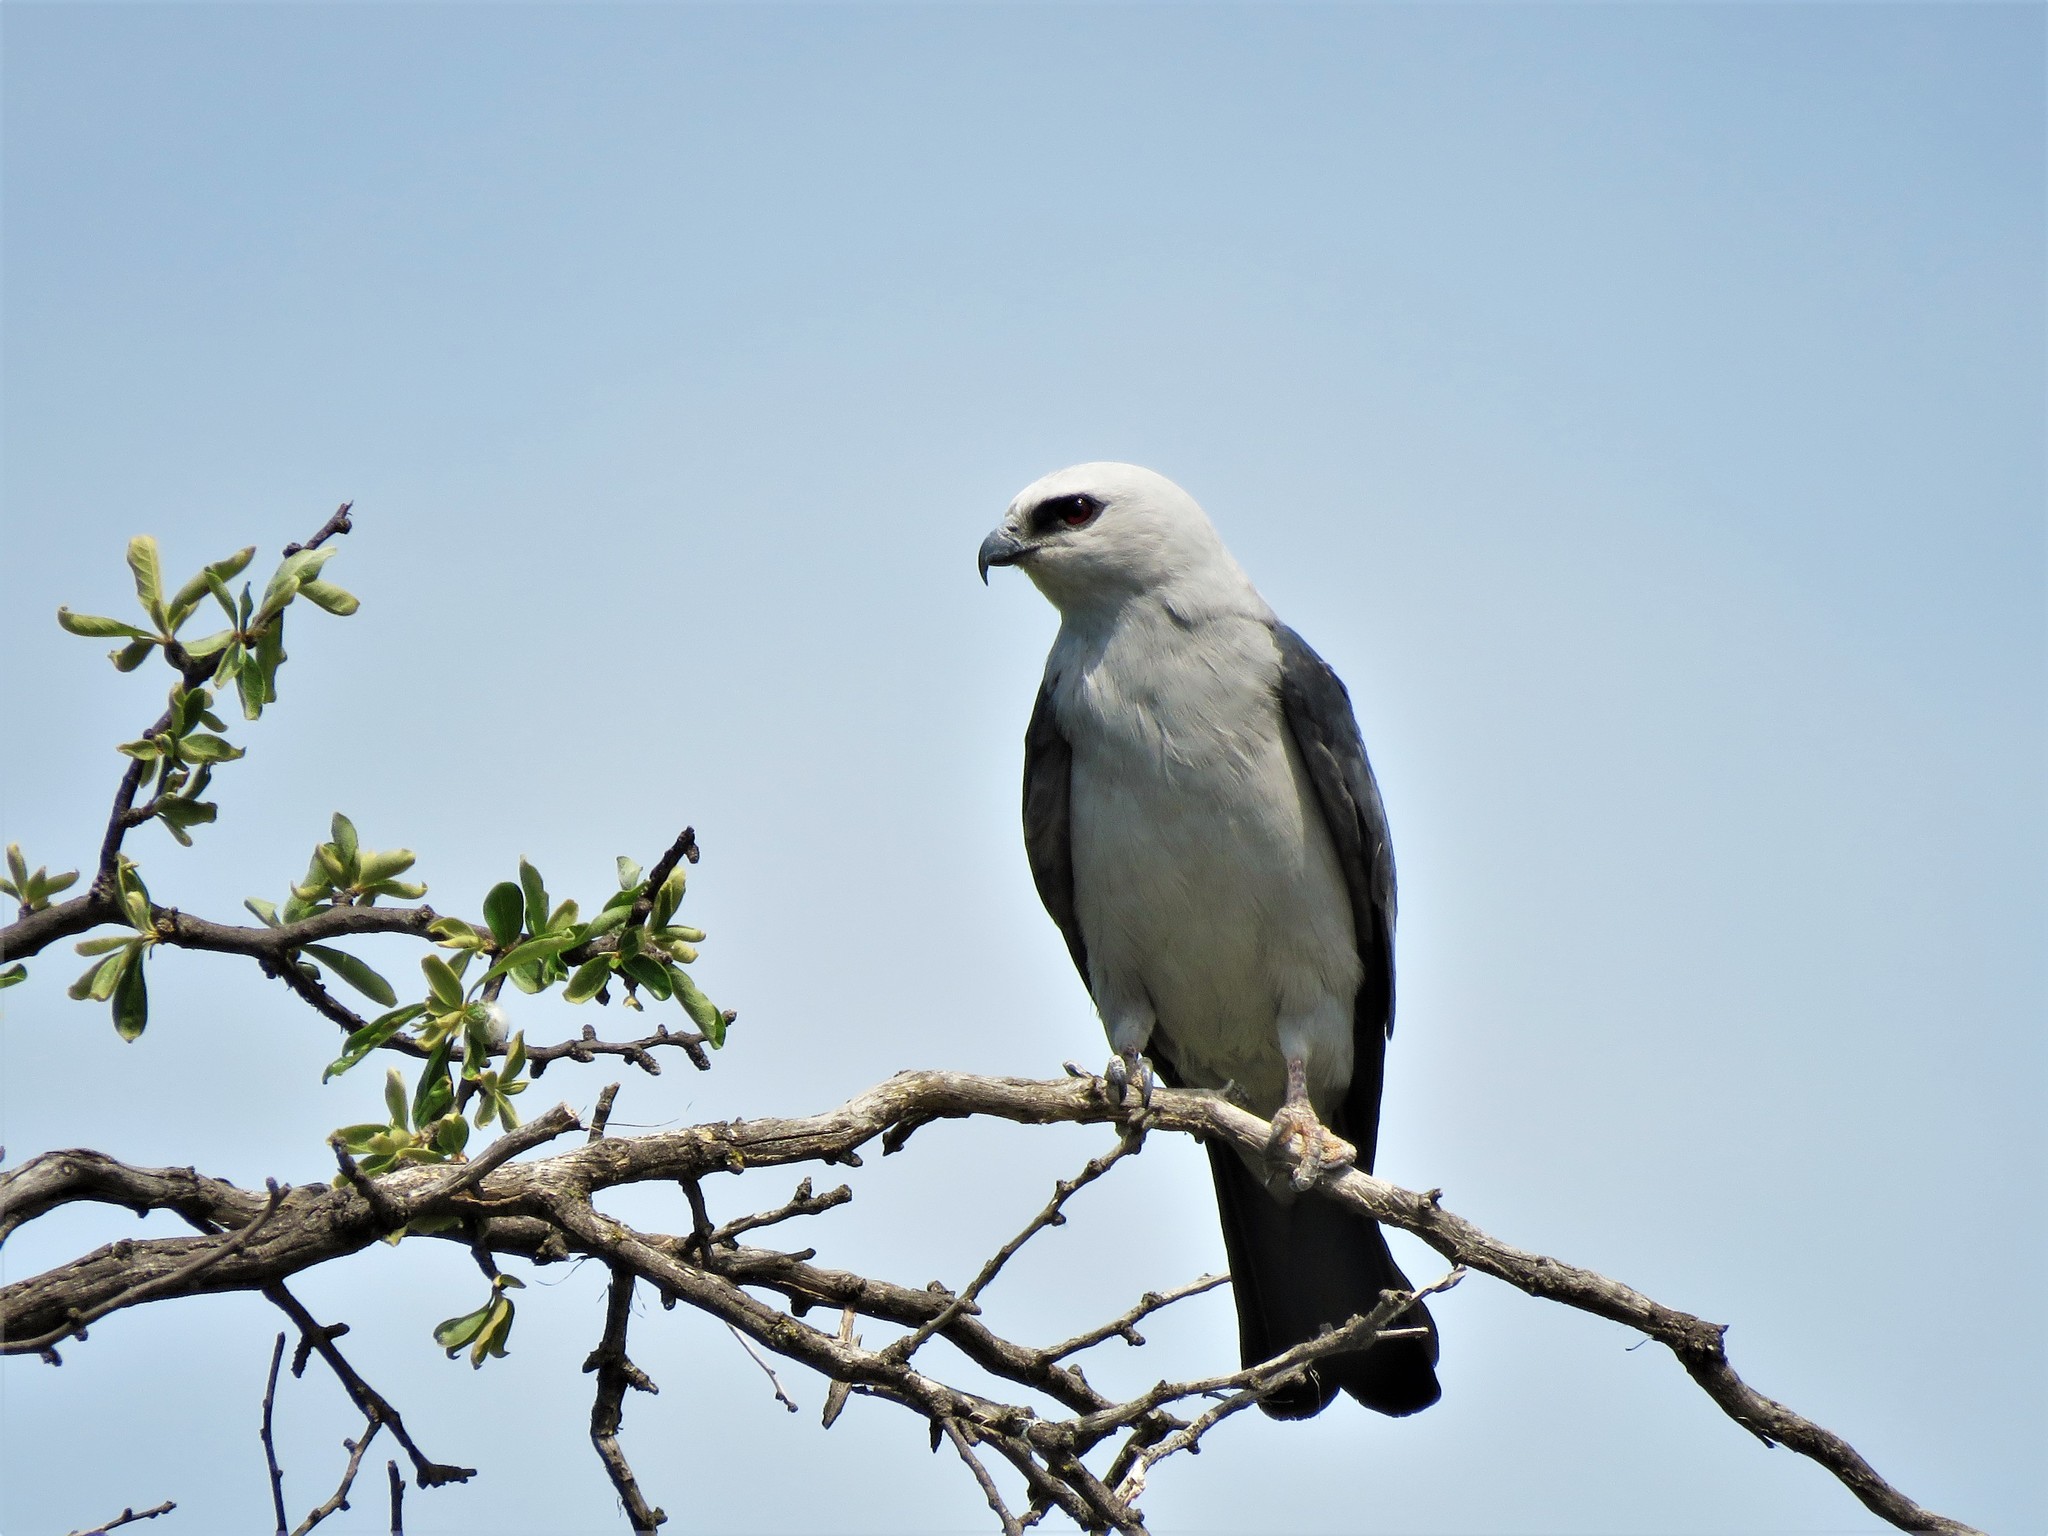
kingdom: Animalia
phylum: Chordata
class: Aves
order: Accipitriformes
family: Accipitridae
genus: Ictinia
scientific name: Ictinia mississippiensis
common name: Mississippi kite
